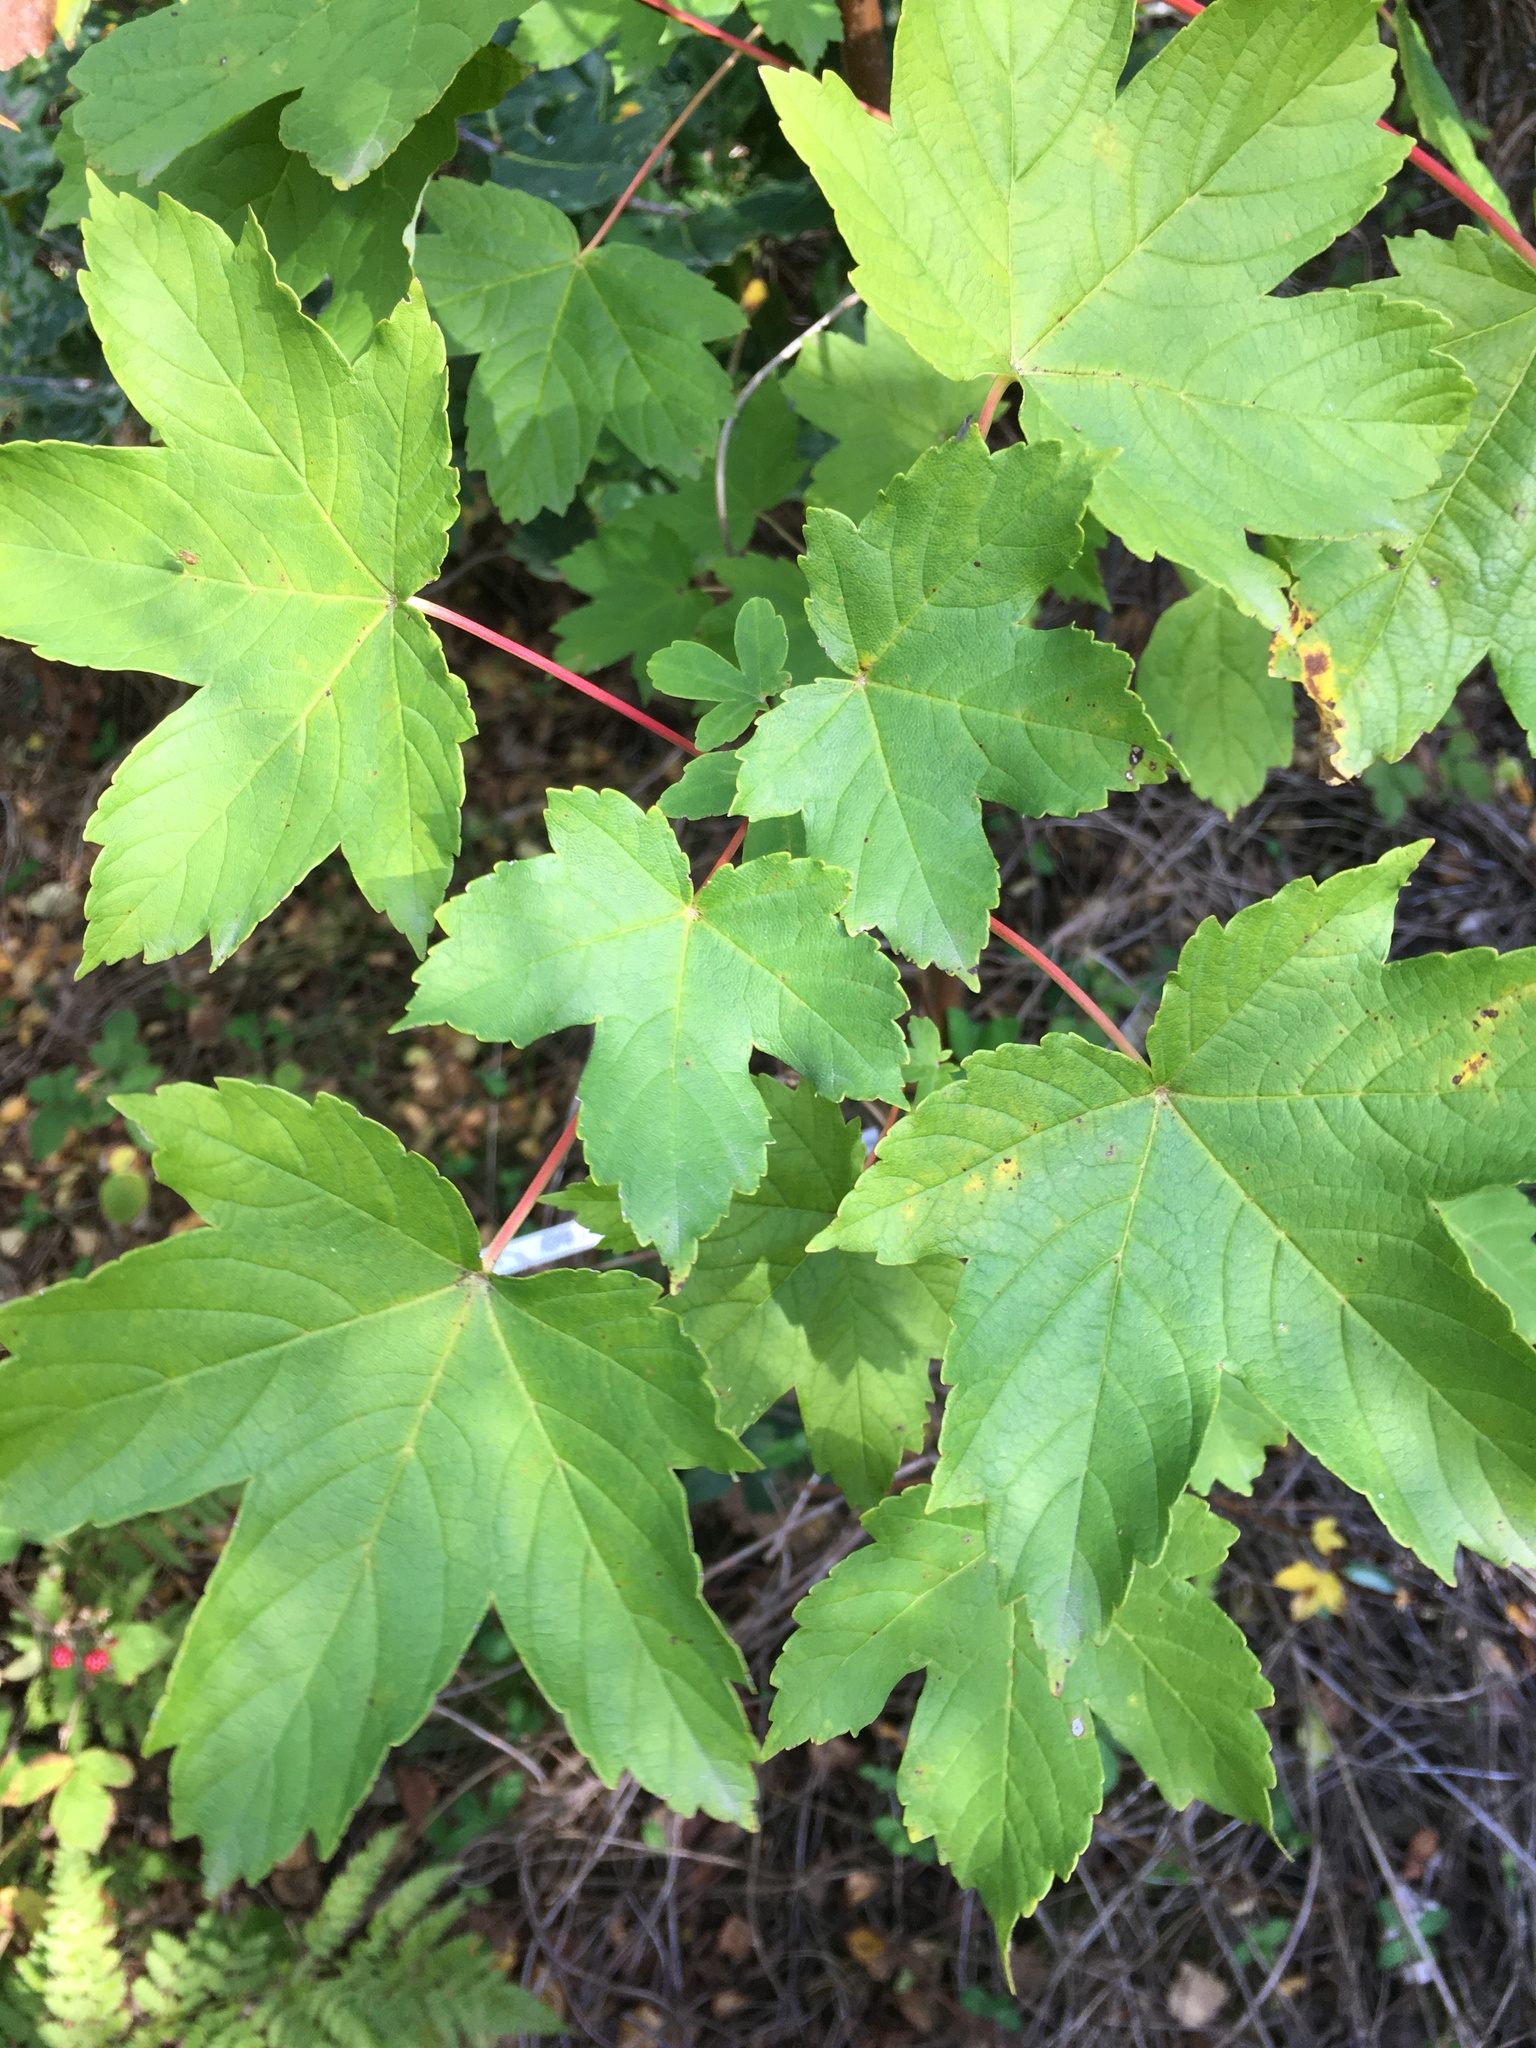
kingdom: Plantae
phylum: Tracheophyta
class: Magnoliopsida
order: Sapindales
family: Sapindaceae
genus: Acer
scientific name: Acer pseudoplatanus
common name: Sycamore
